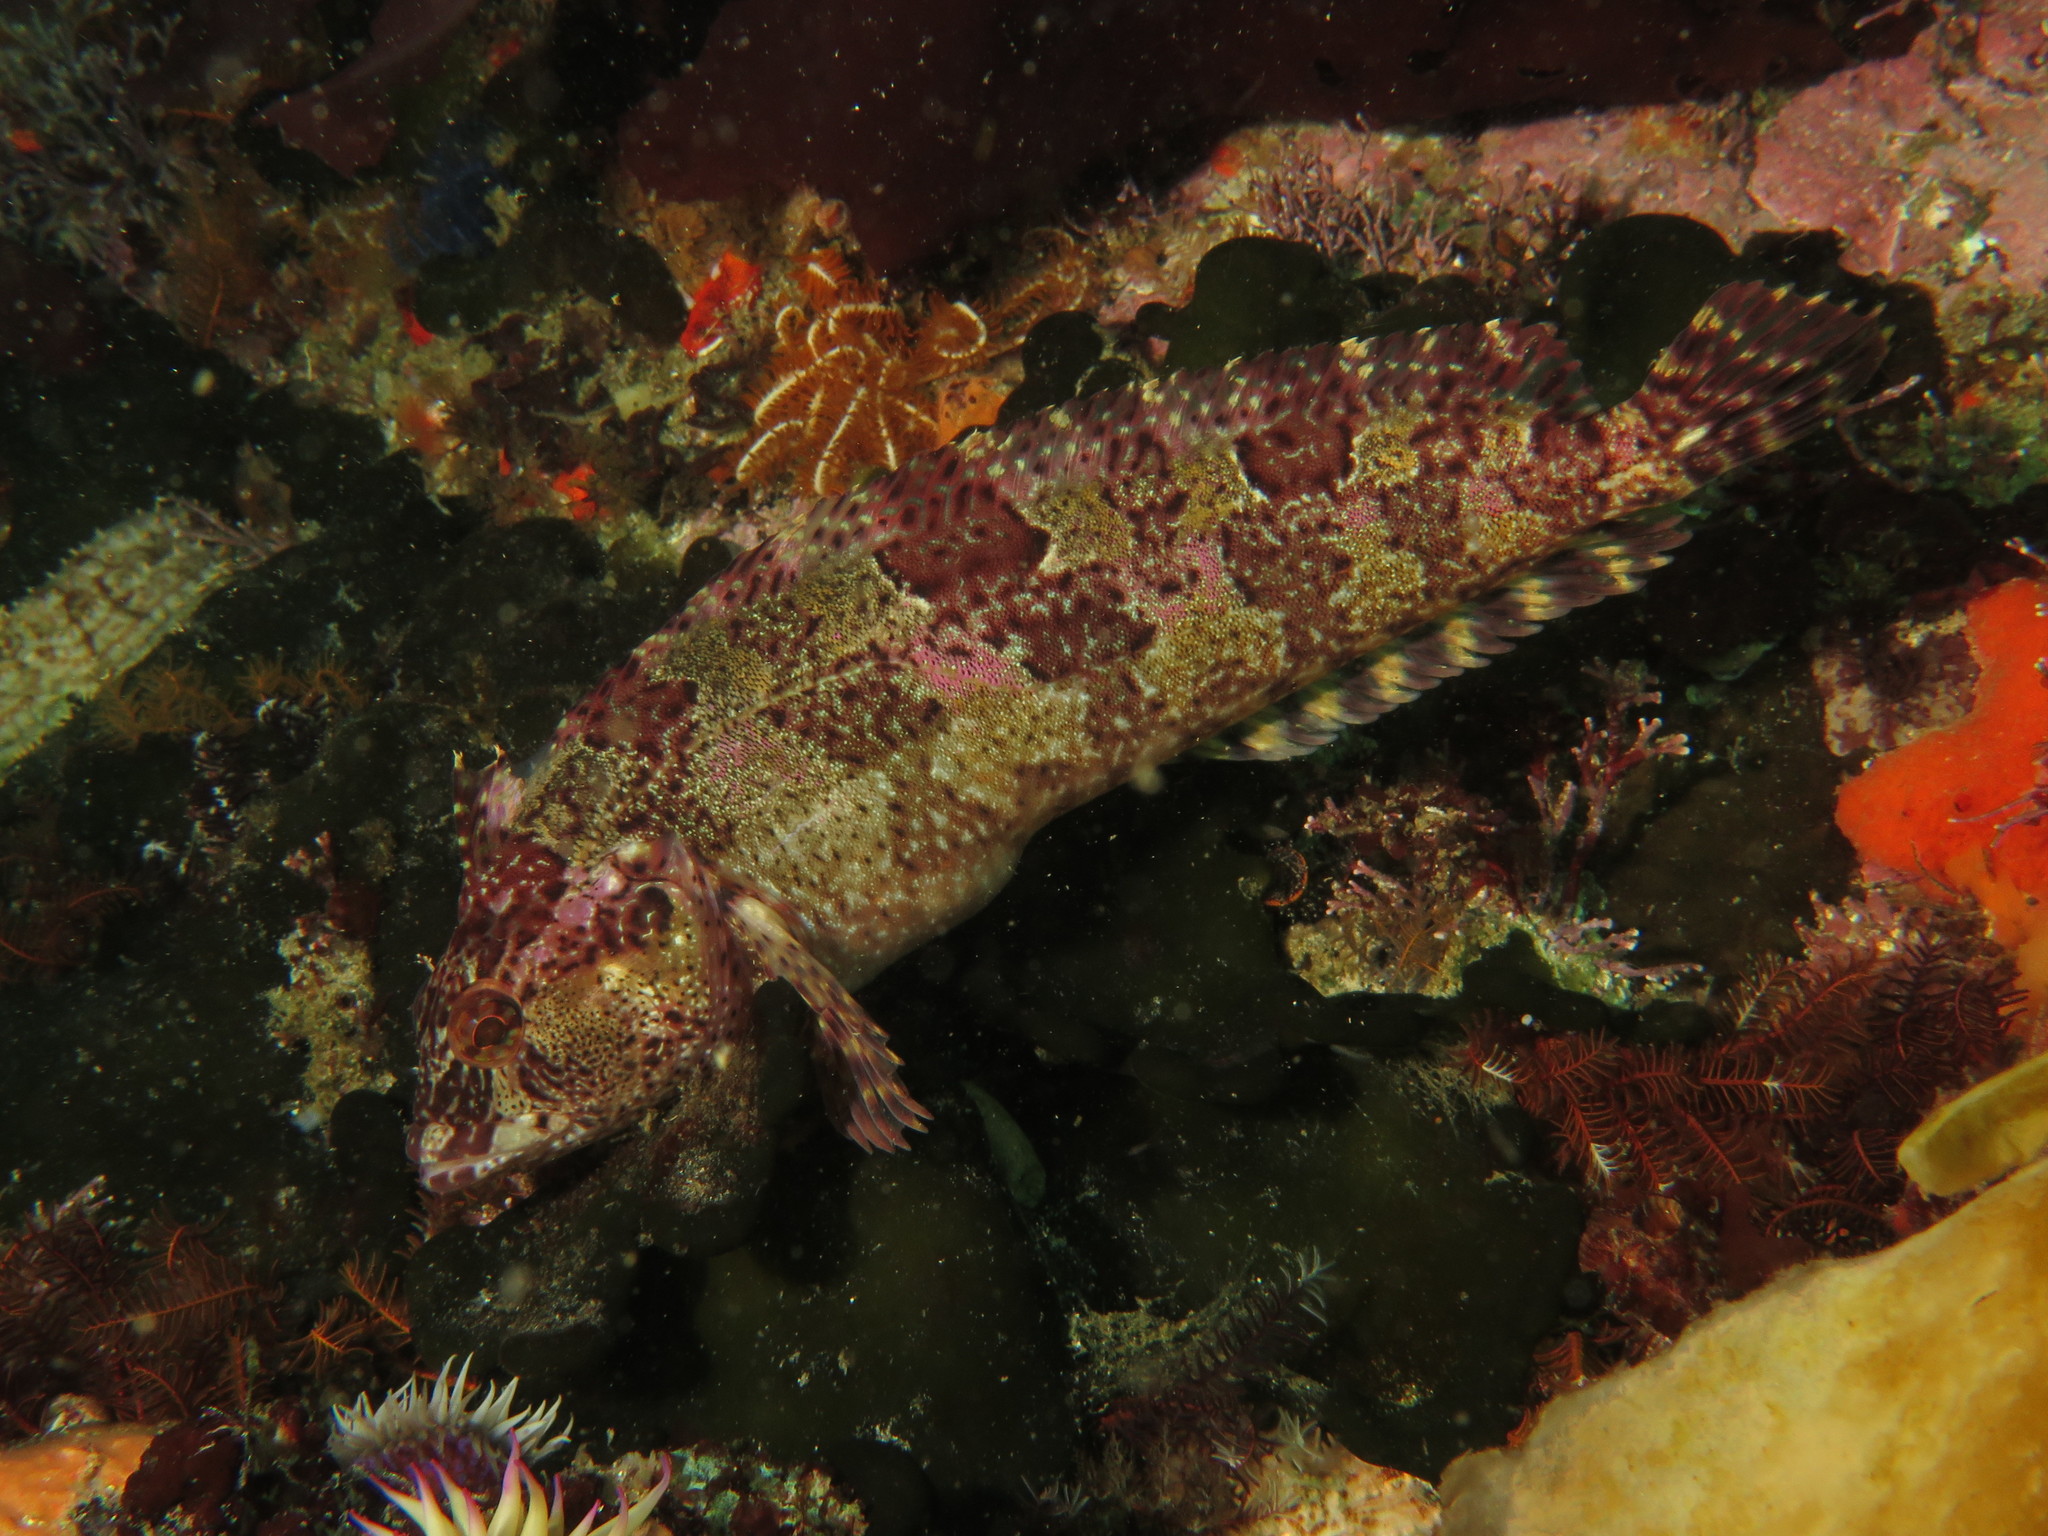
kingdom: Animalia
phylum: Chordata
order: Perciformes
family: Clinidae
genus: Clinus
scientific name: Clinus superciliosus
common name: Super klipfish
